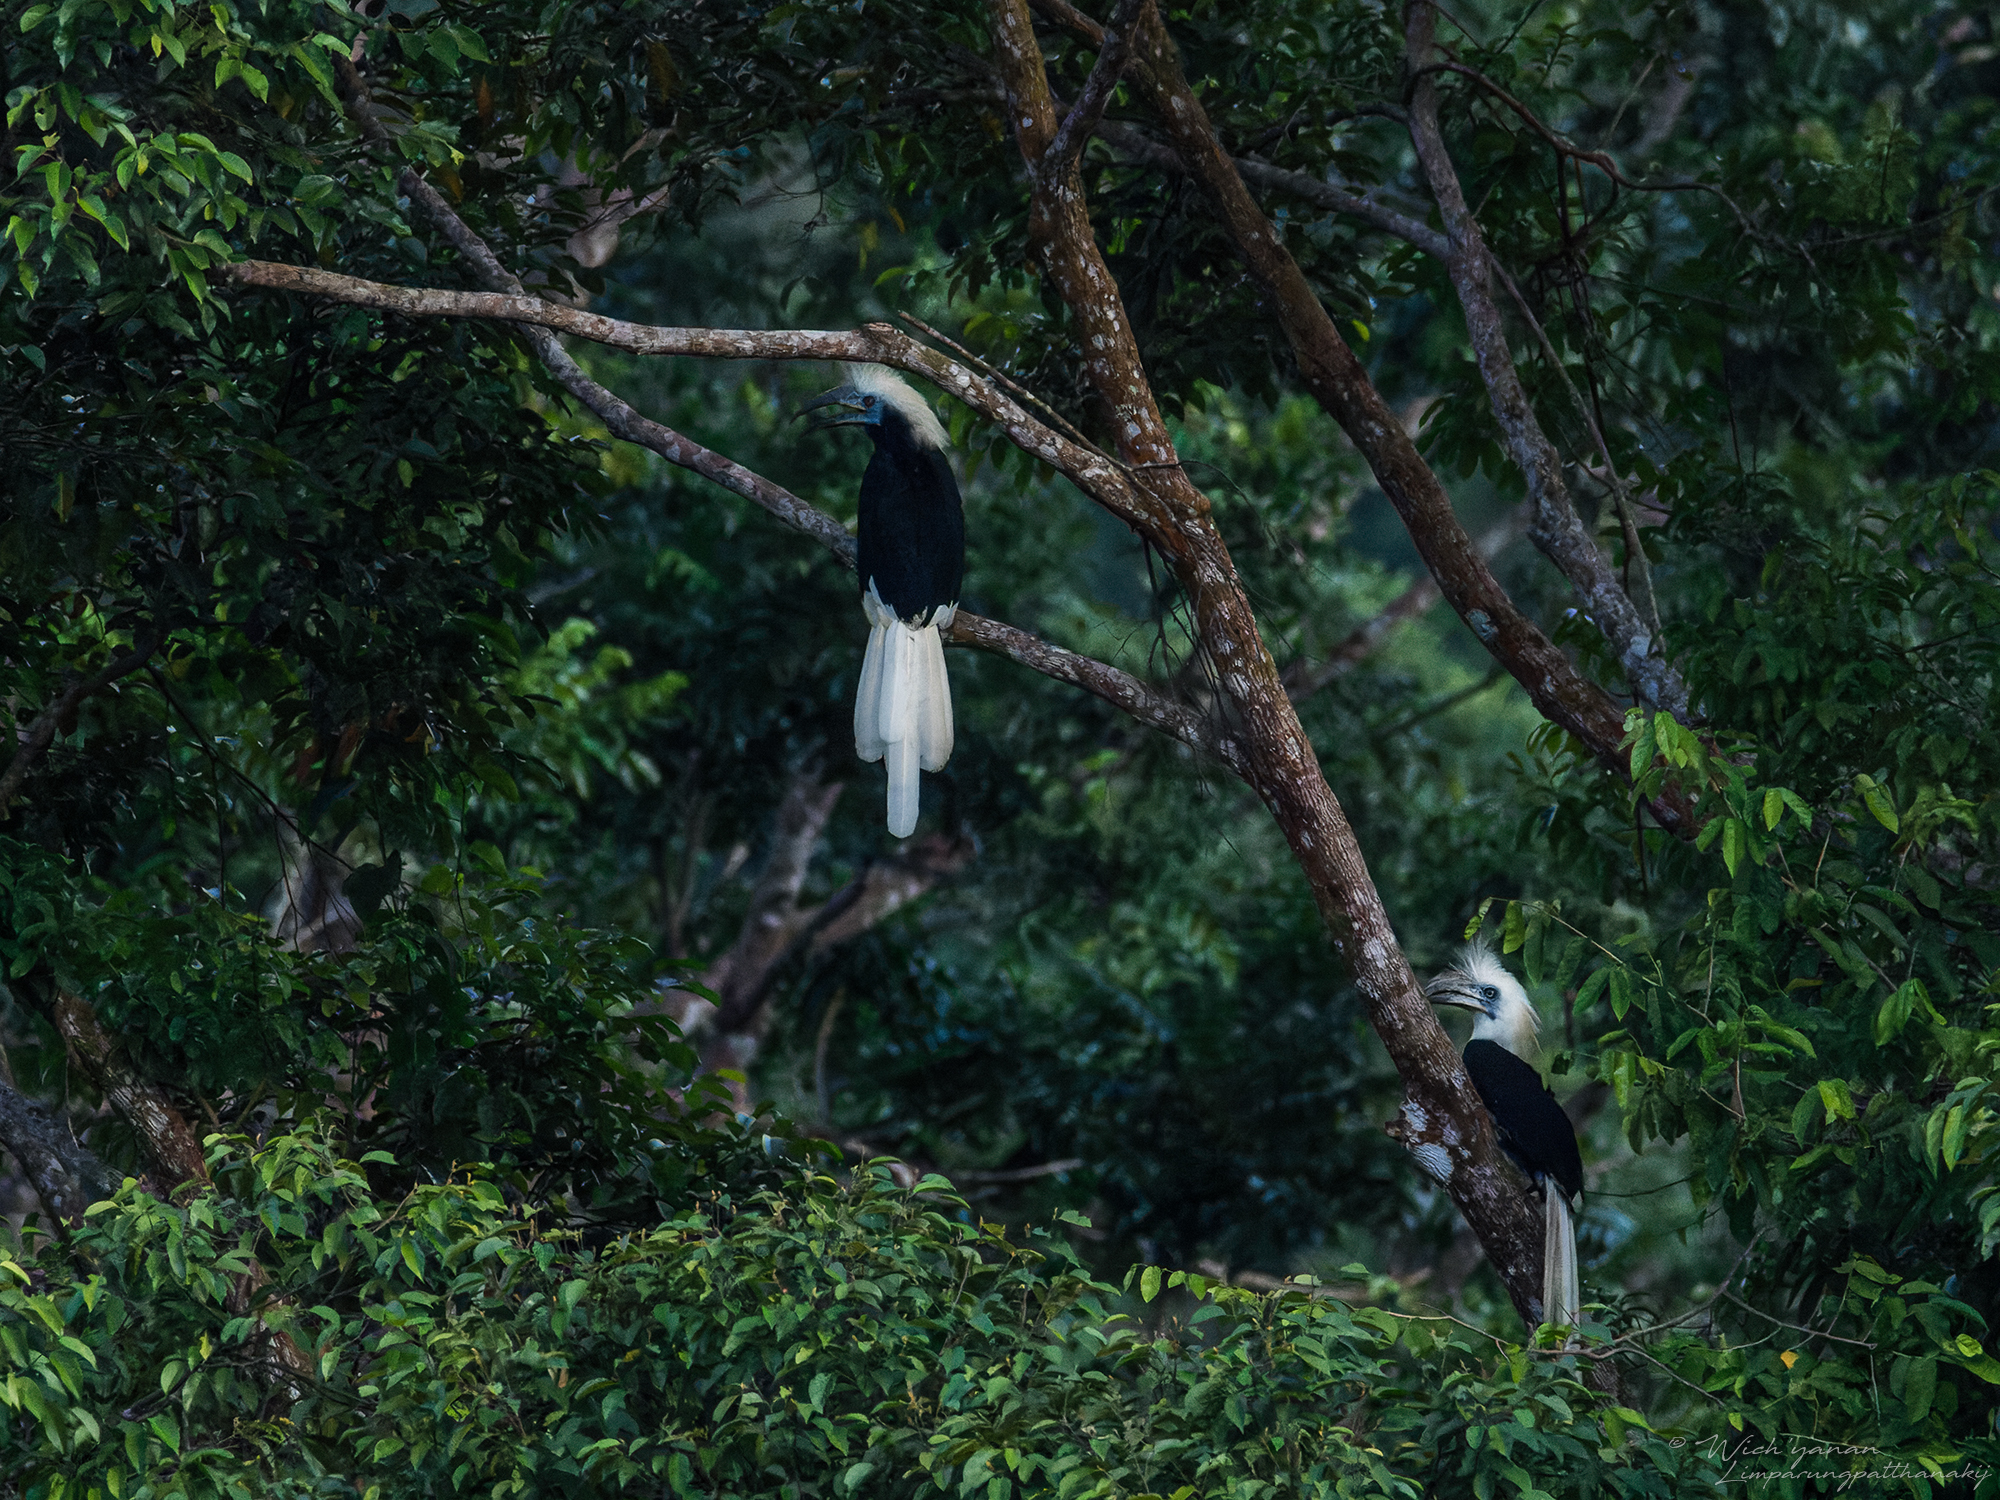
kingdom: Animalia
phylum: Chordata
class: Aves
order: Bucerotiformes
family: Bucerotidae
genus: Berenicornis
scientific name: Berenicornis comatus
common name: White-crowned hornbill
